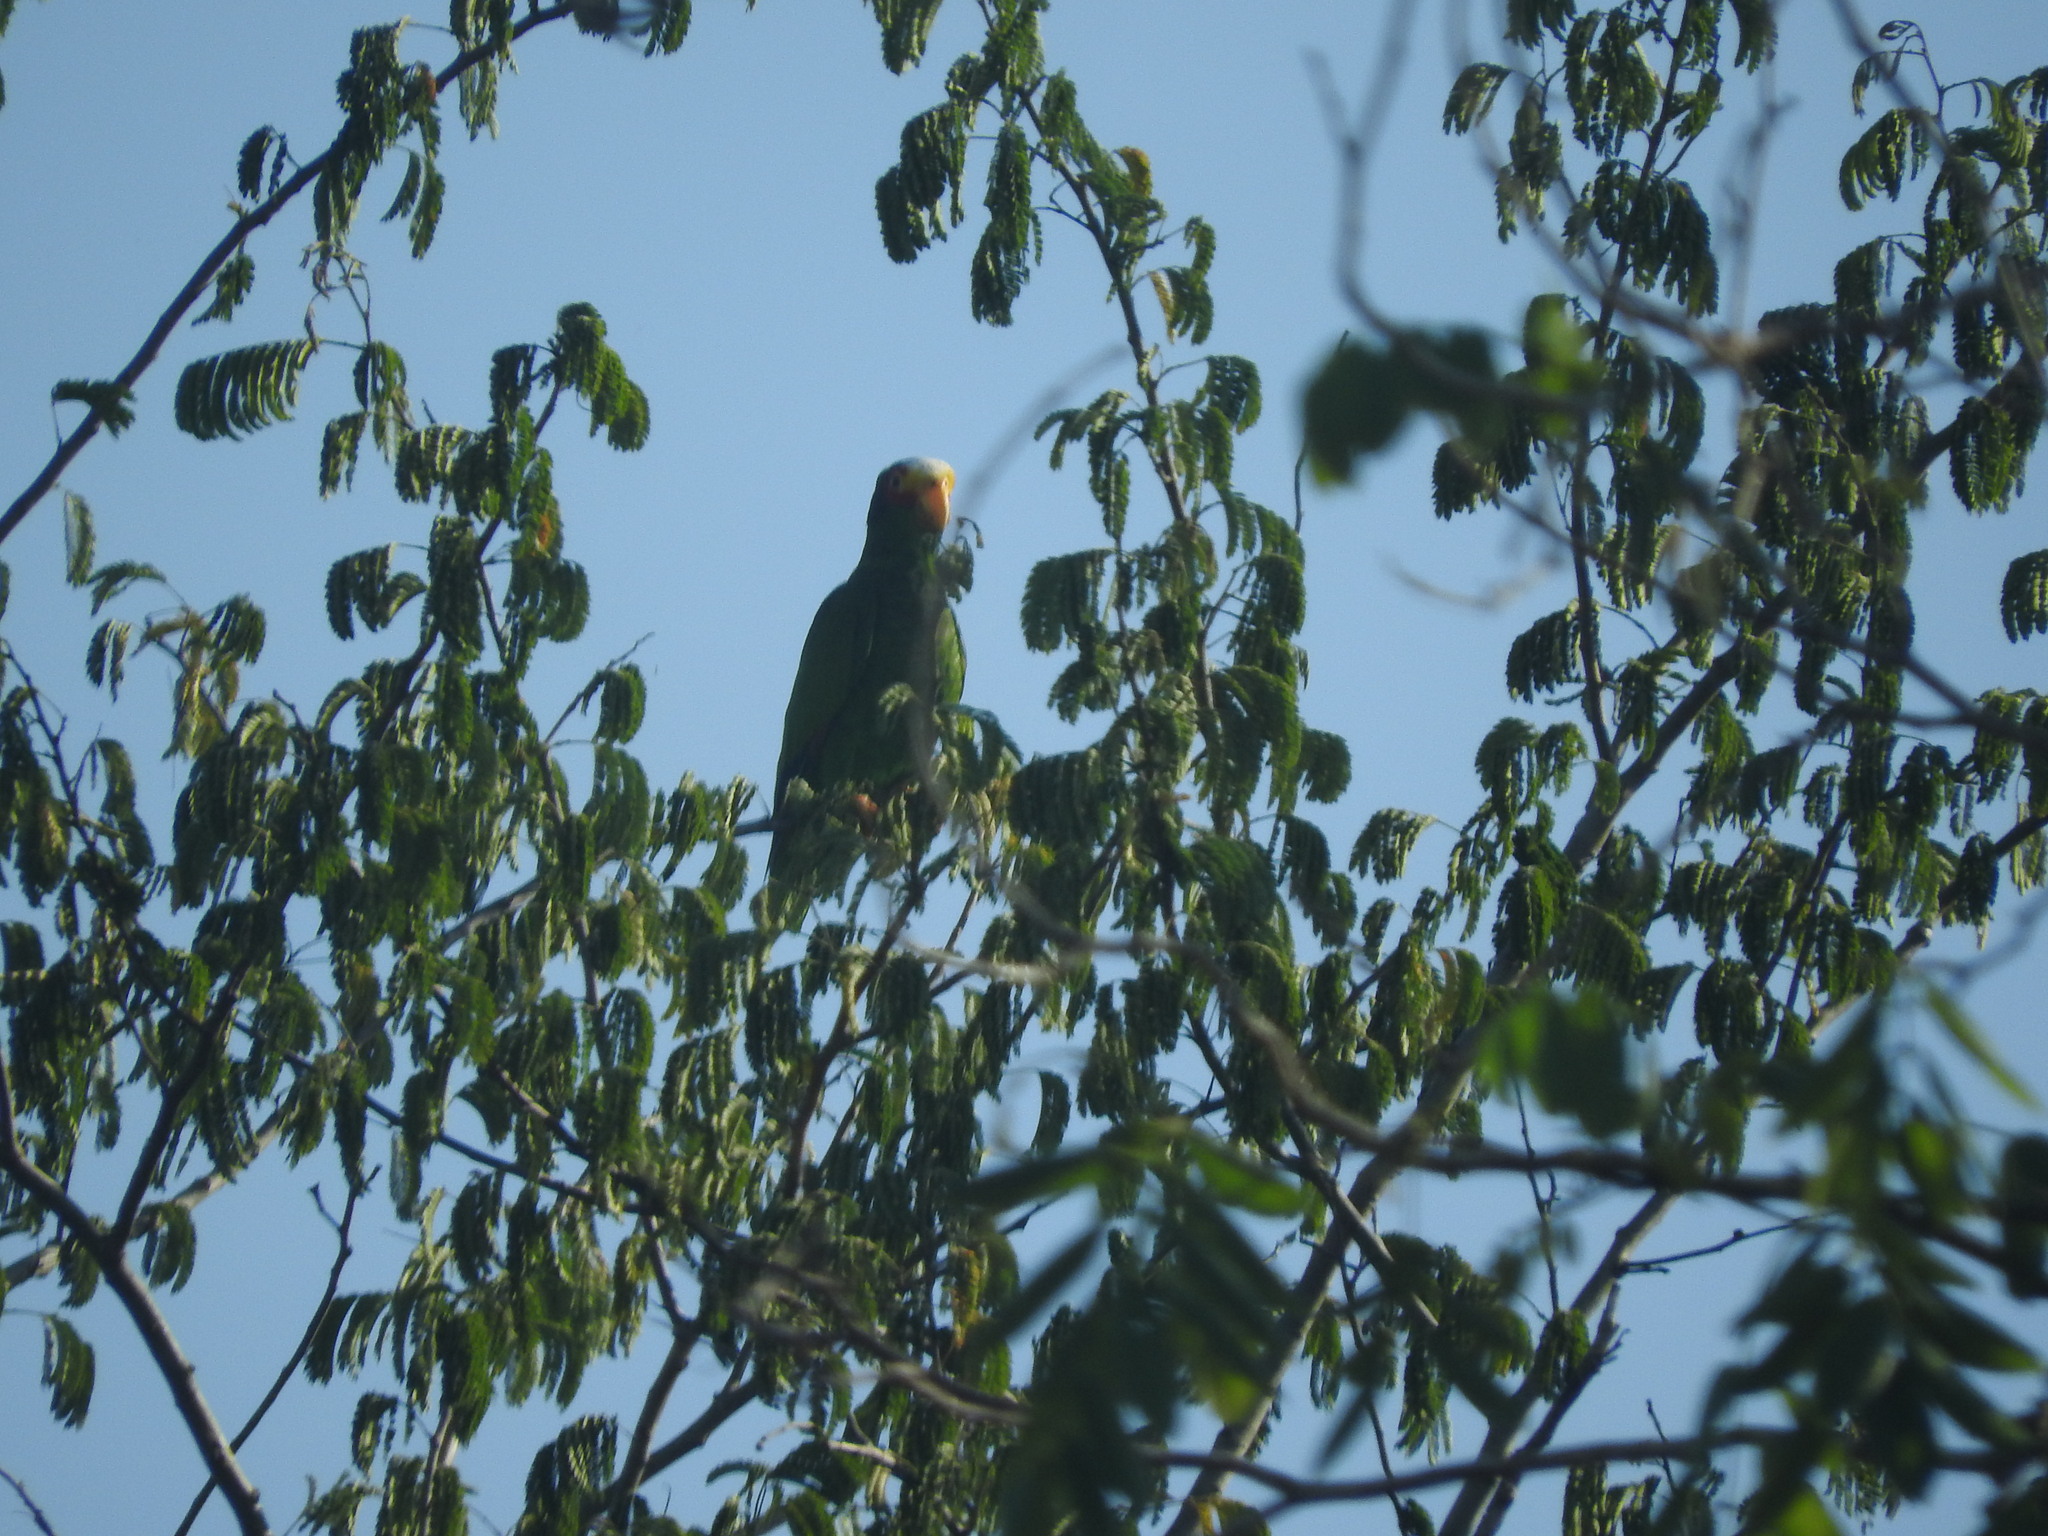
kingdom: Animalia
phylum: Chordata
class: Aves
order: Psittaciformes
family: Psittacidae
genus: Amazona
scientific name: Amazona xantholora
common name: Yucatan amazon
